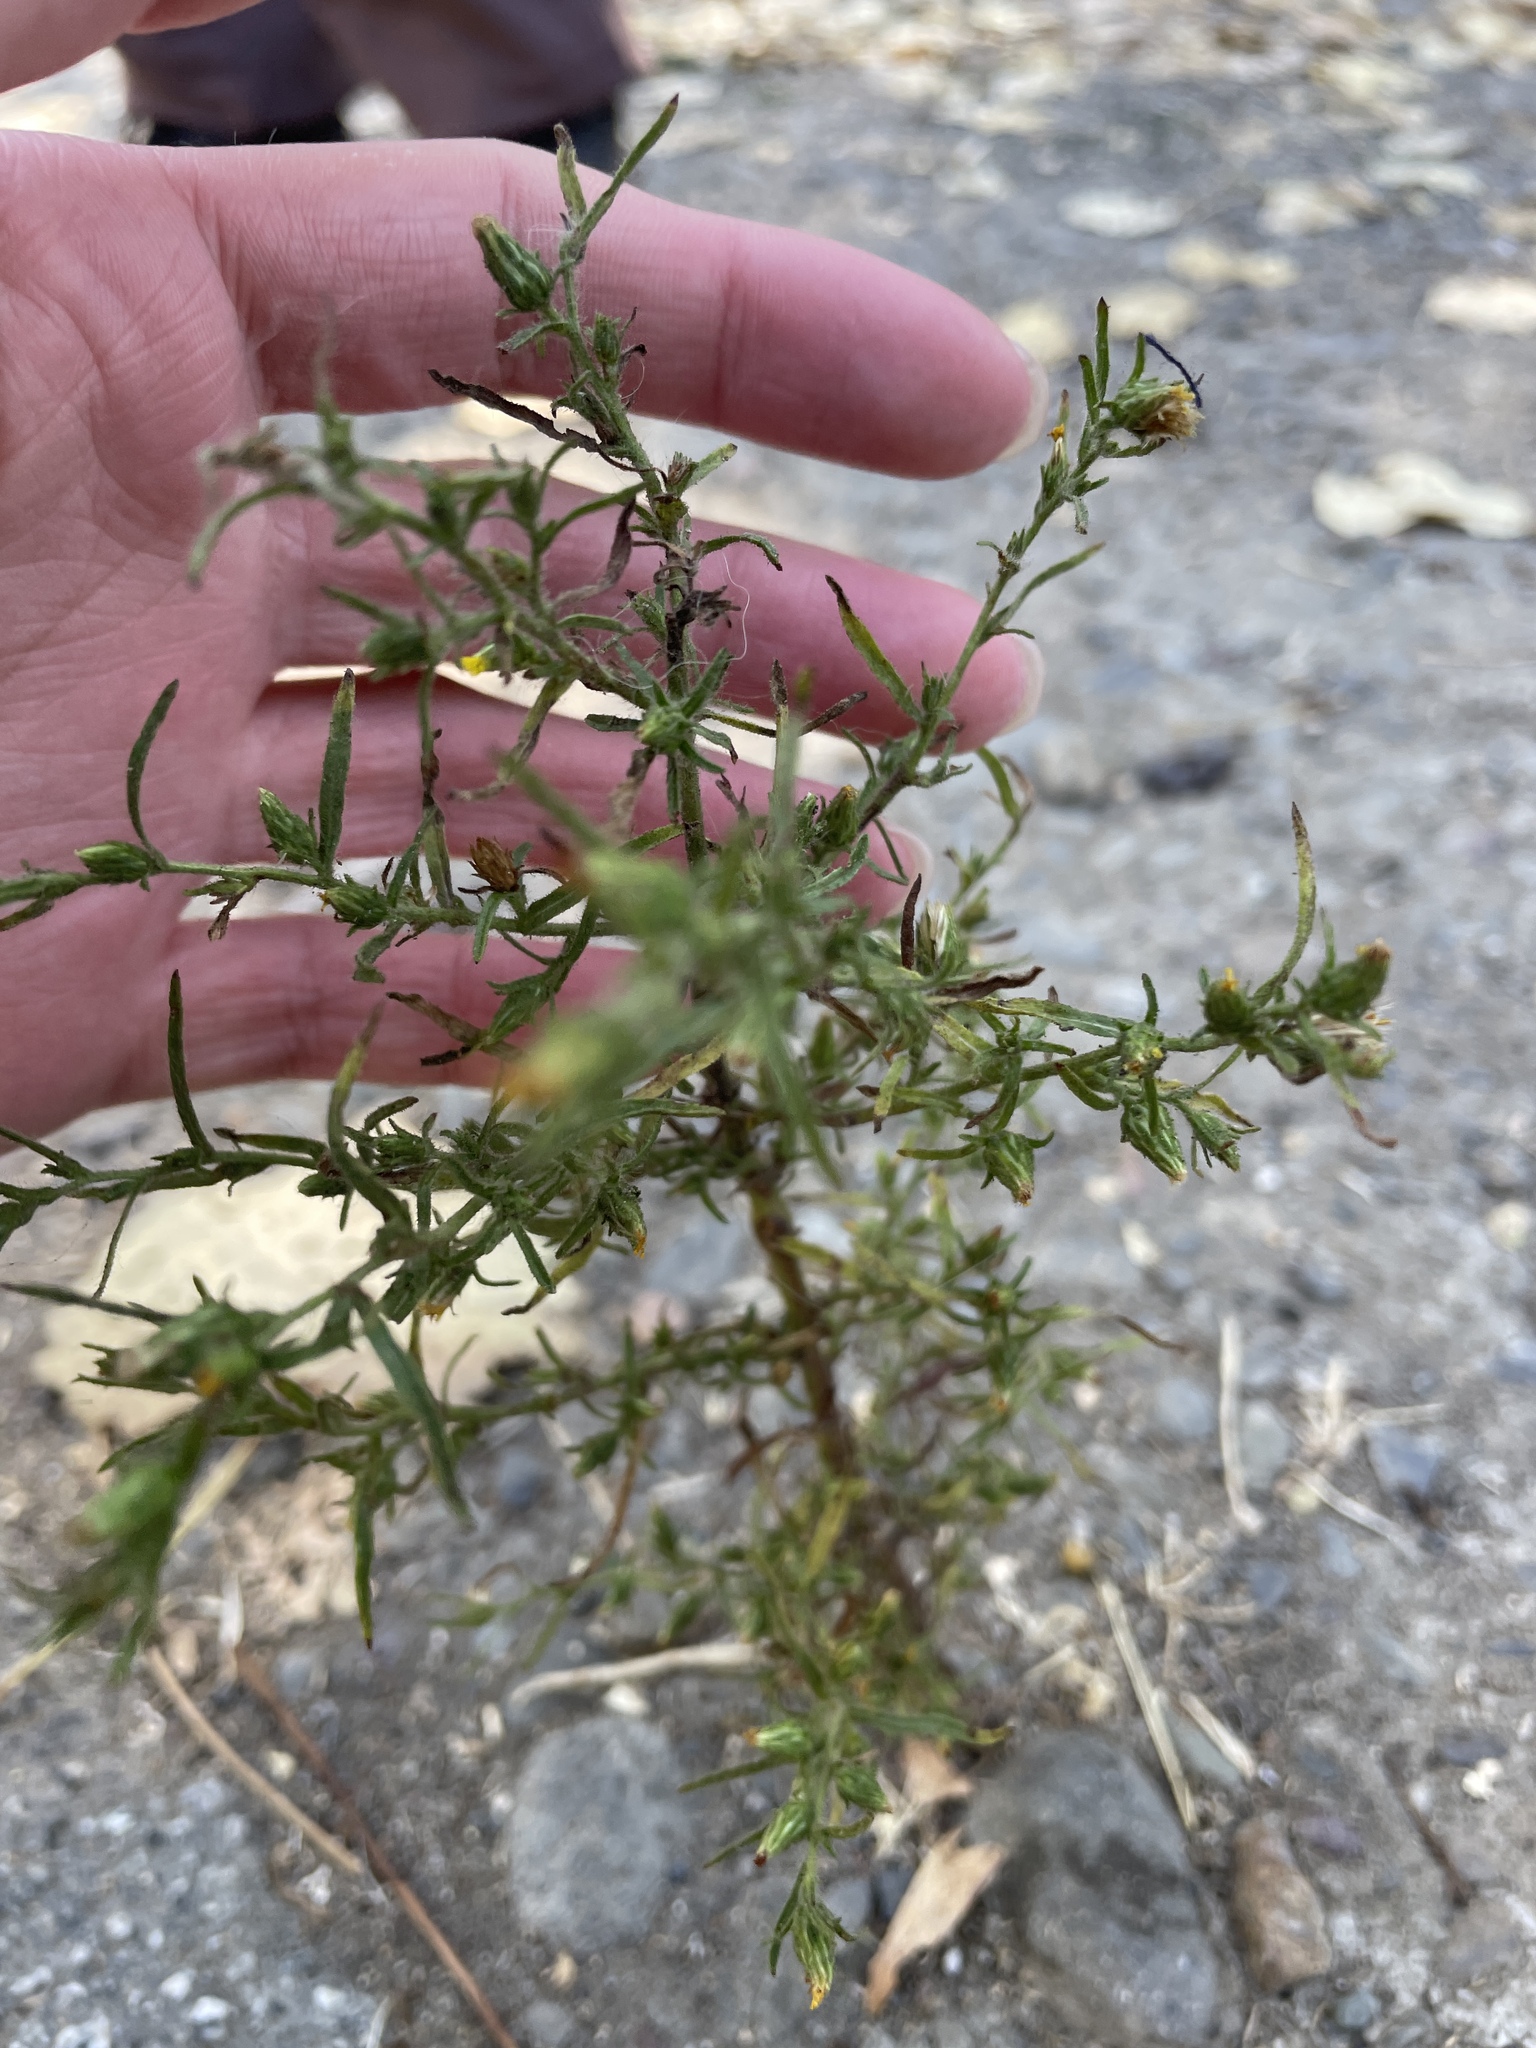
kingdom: Plantae
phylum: Tracheophyta
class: Magnoliopsida
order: Asterales
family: Asteraceae
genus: Dittrichia
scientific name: Dittrichia graveolens
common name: Stinking fleabane
